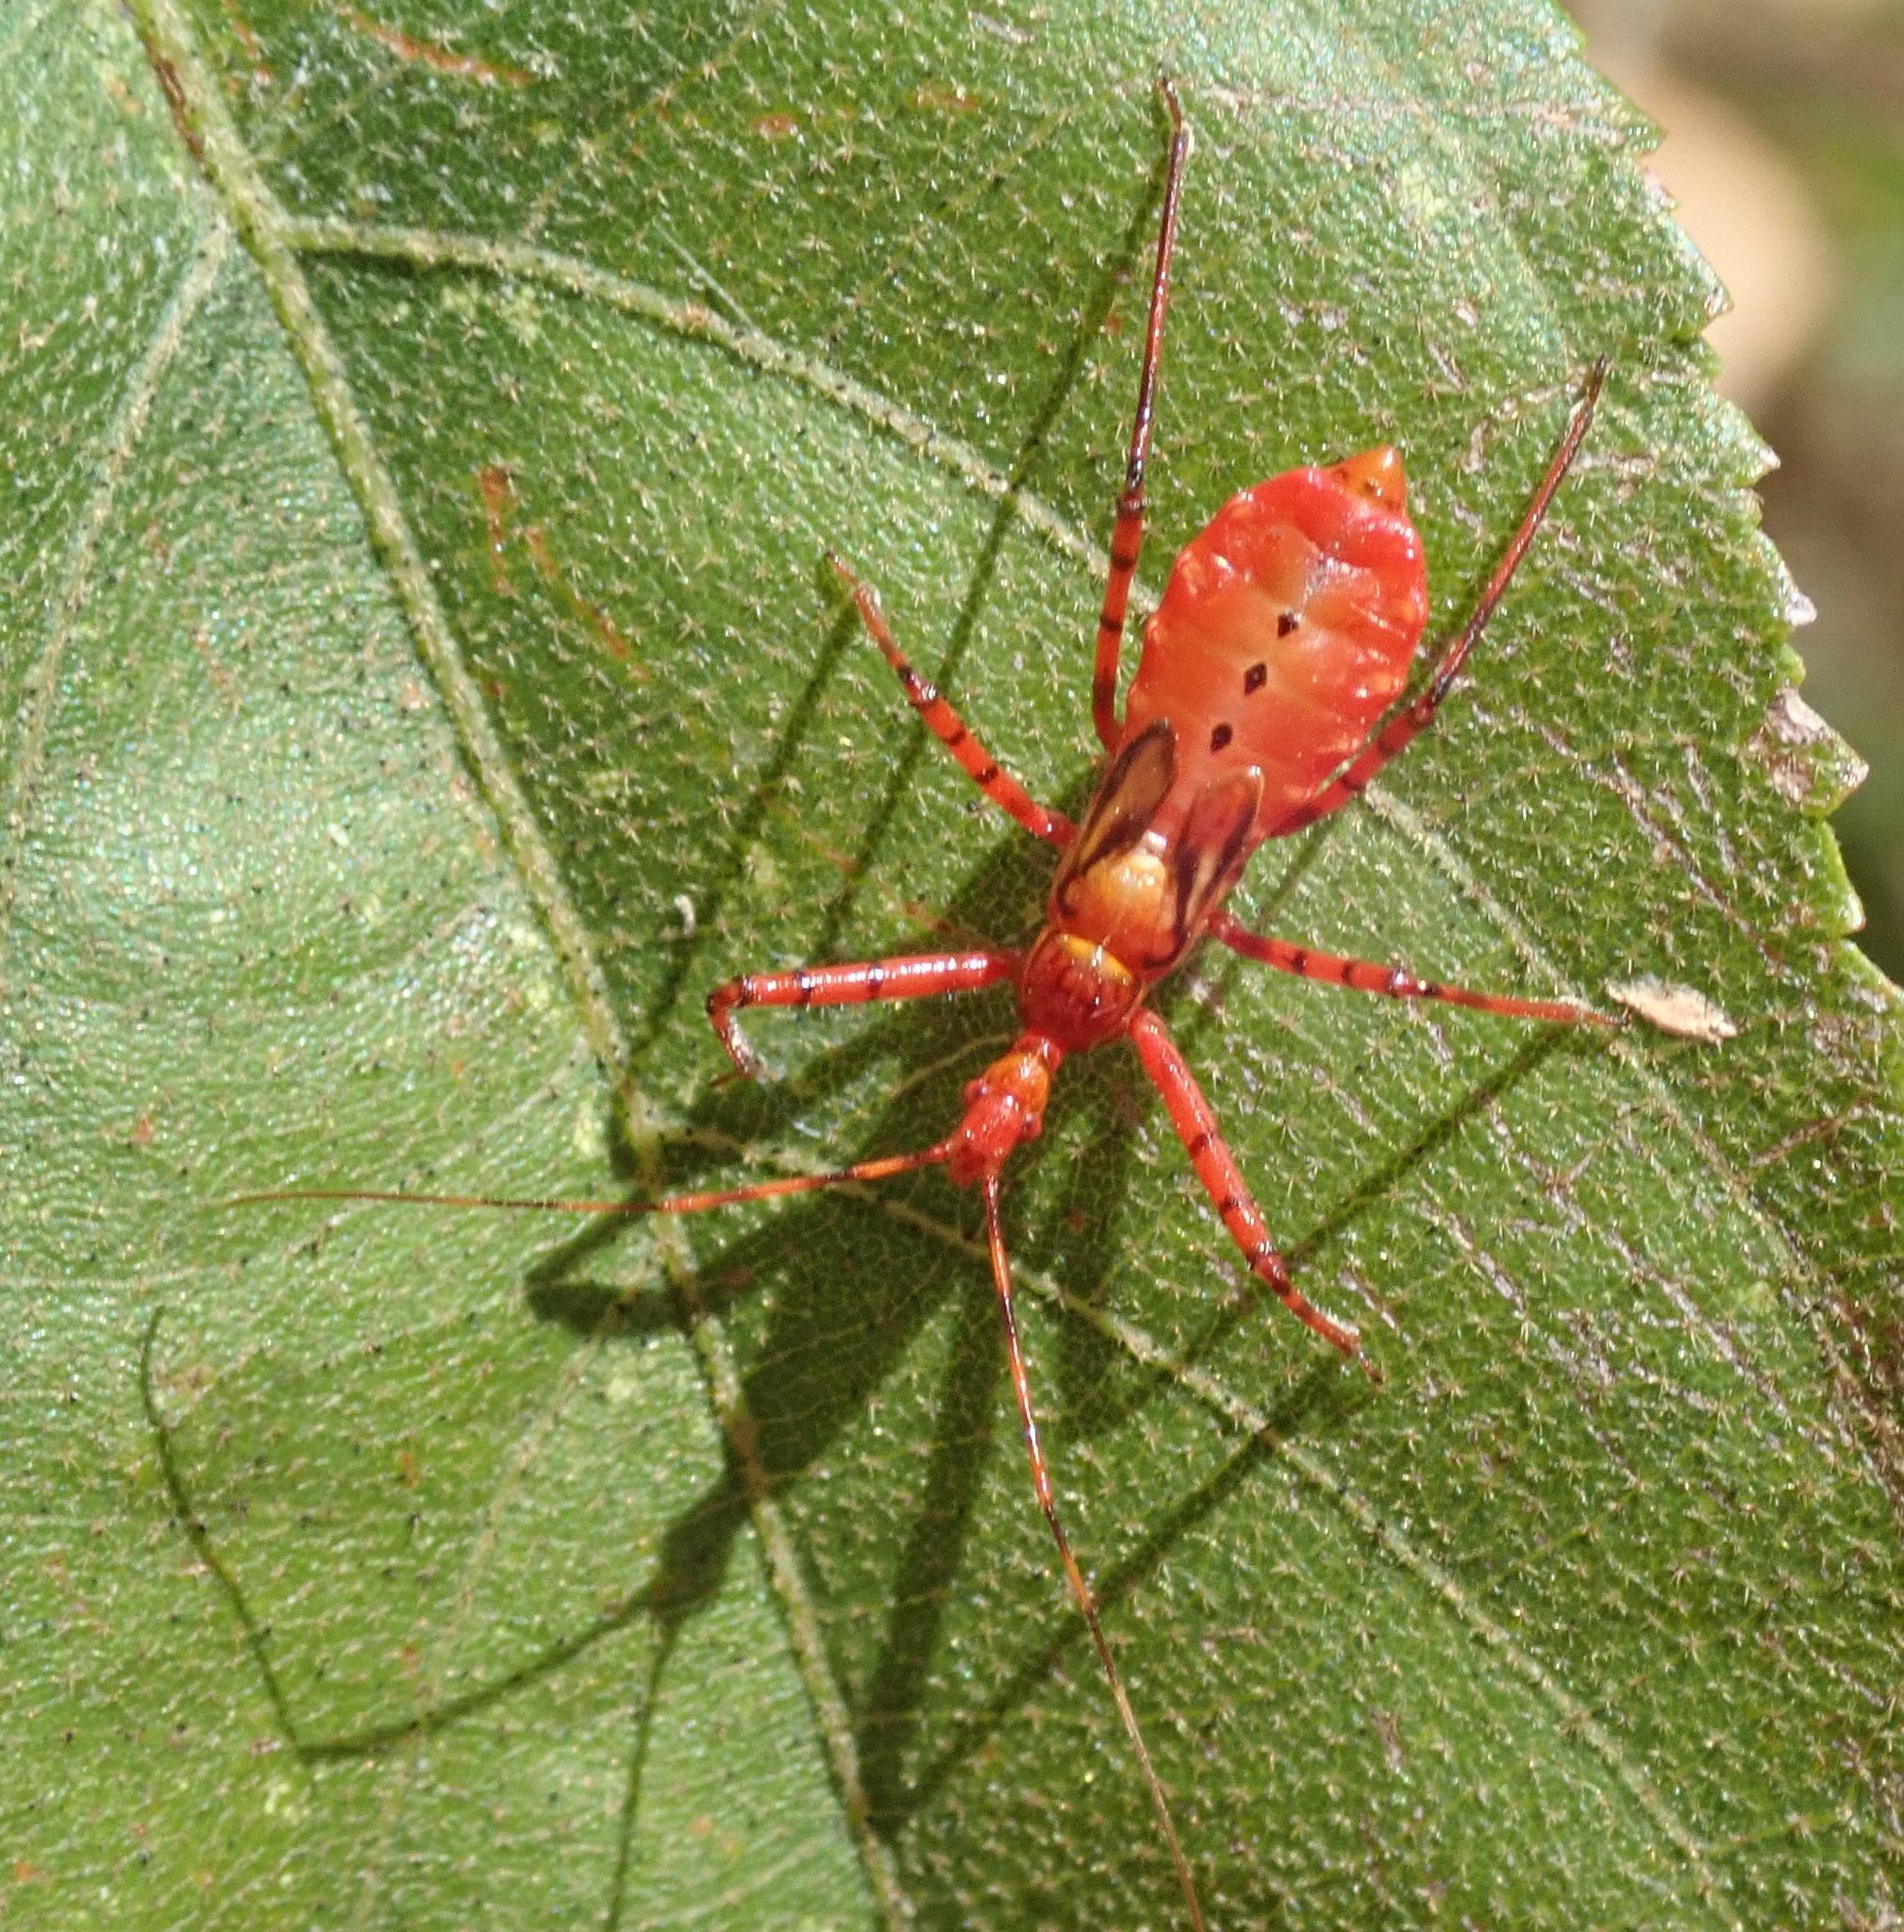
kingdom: Animalia
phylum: Arthropoda
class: Insecta
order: Hemiptera
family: Reduviidae
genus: Pseudophonoctonus
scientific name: Pseudophonoctonus formosus
